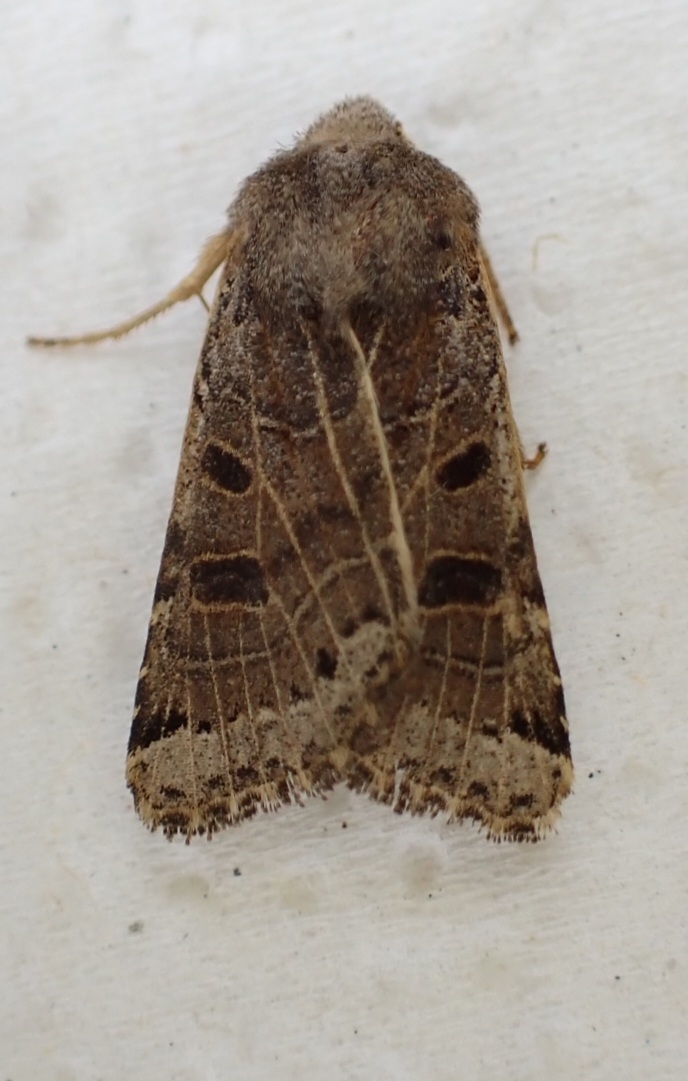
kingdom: Animalia
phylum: Arthropoda
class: Insecta
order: Lepidoptera
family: Noctuidae
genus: Agrochola
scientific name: Agrochola lunosa
